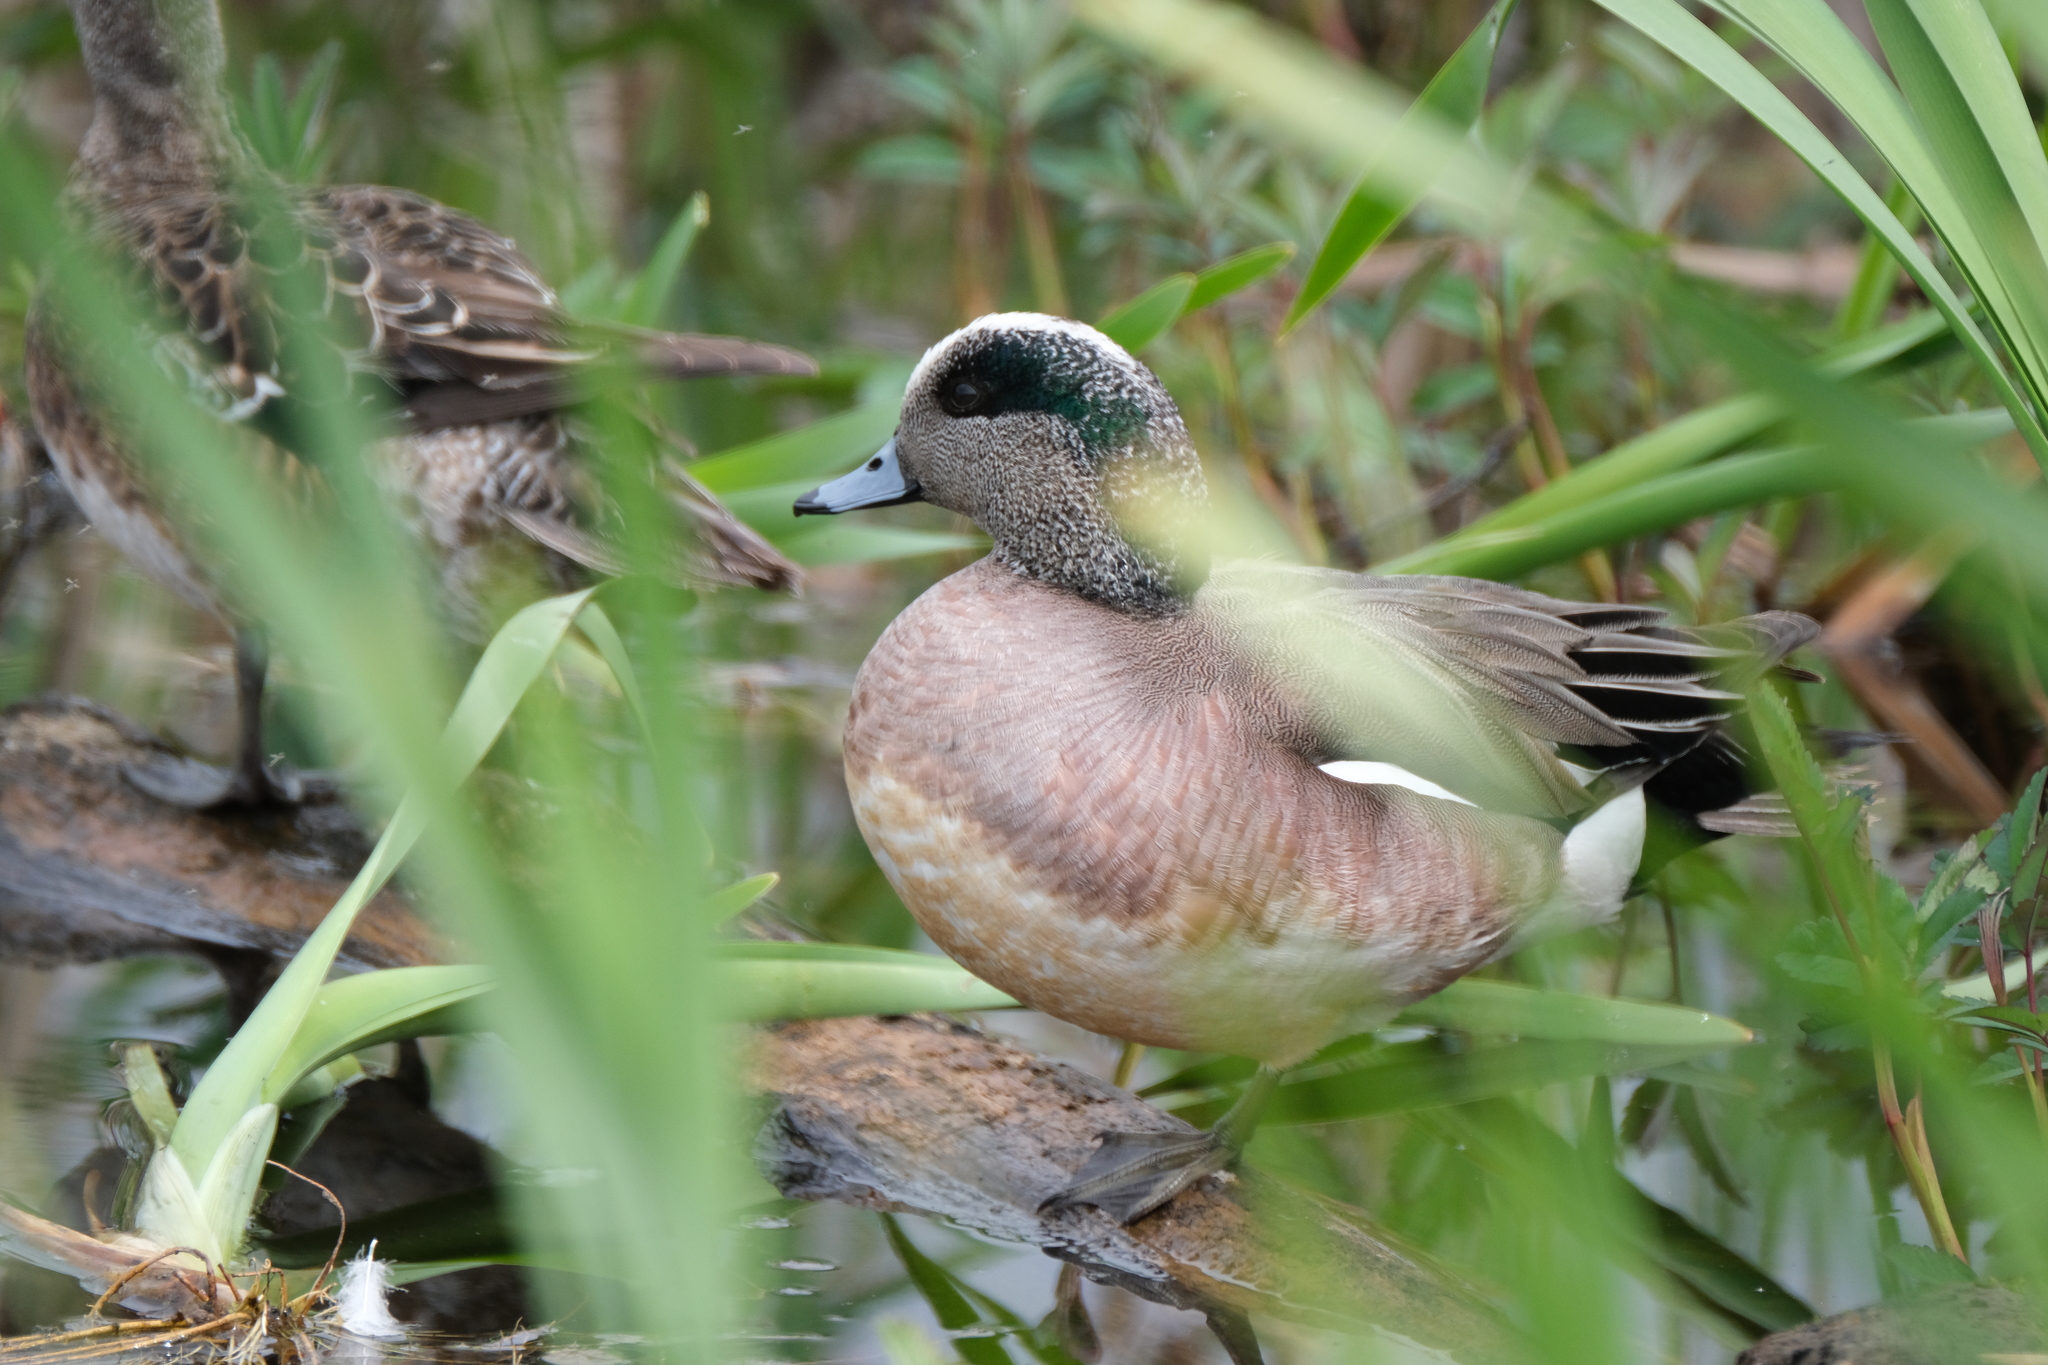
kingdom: Animalia
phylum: Chordata
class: Aves
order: Anseriformes
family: Anatidae
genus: Mareca
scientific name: Mareca americana
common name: American wigeon
